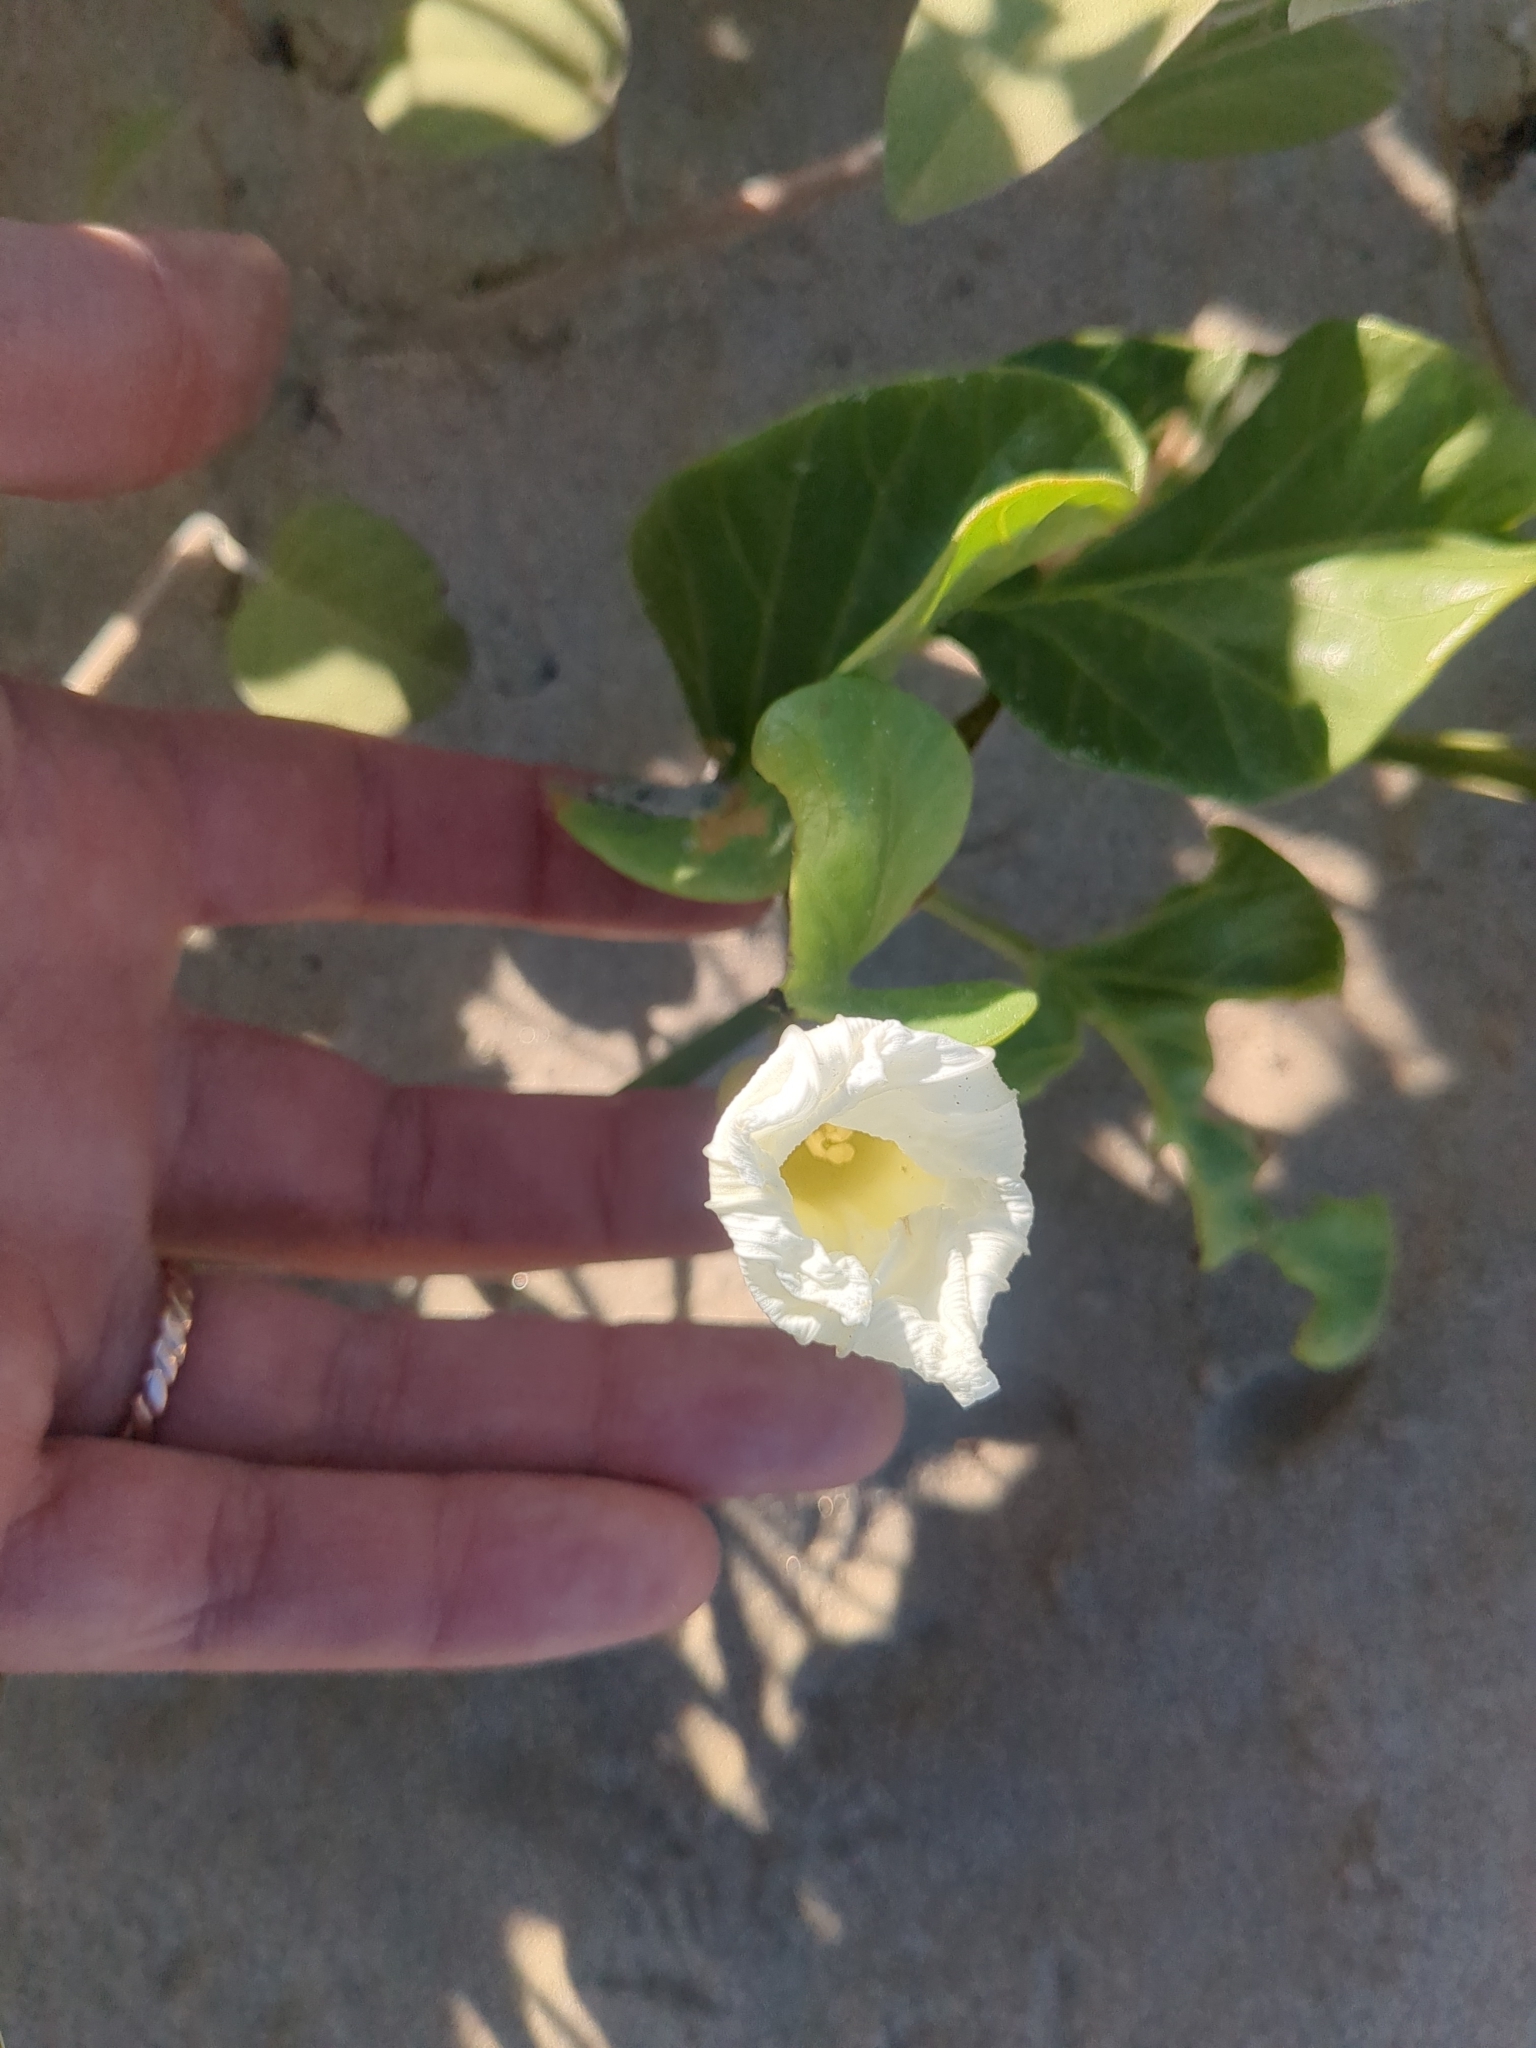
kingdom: Plantae
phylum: Tracheophyta
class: Magnoliopsida
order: Solanales
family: Convolvulaceae
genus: Ipomoea
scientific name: Ipomoea imperati
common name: Fiddle-leaf morning-glory
